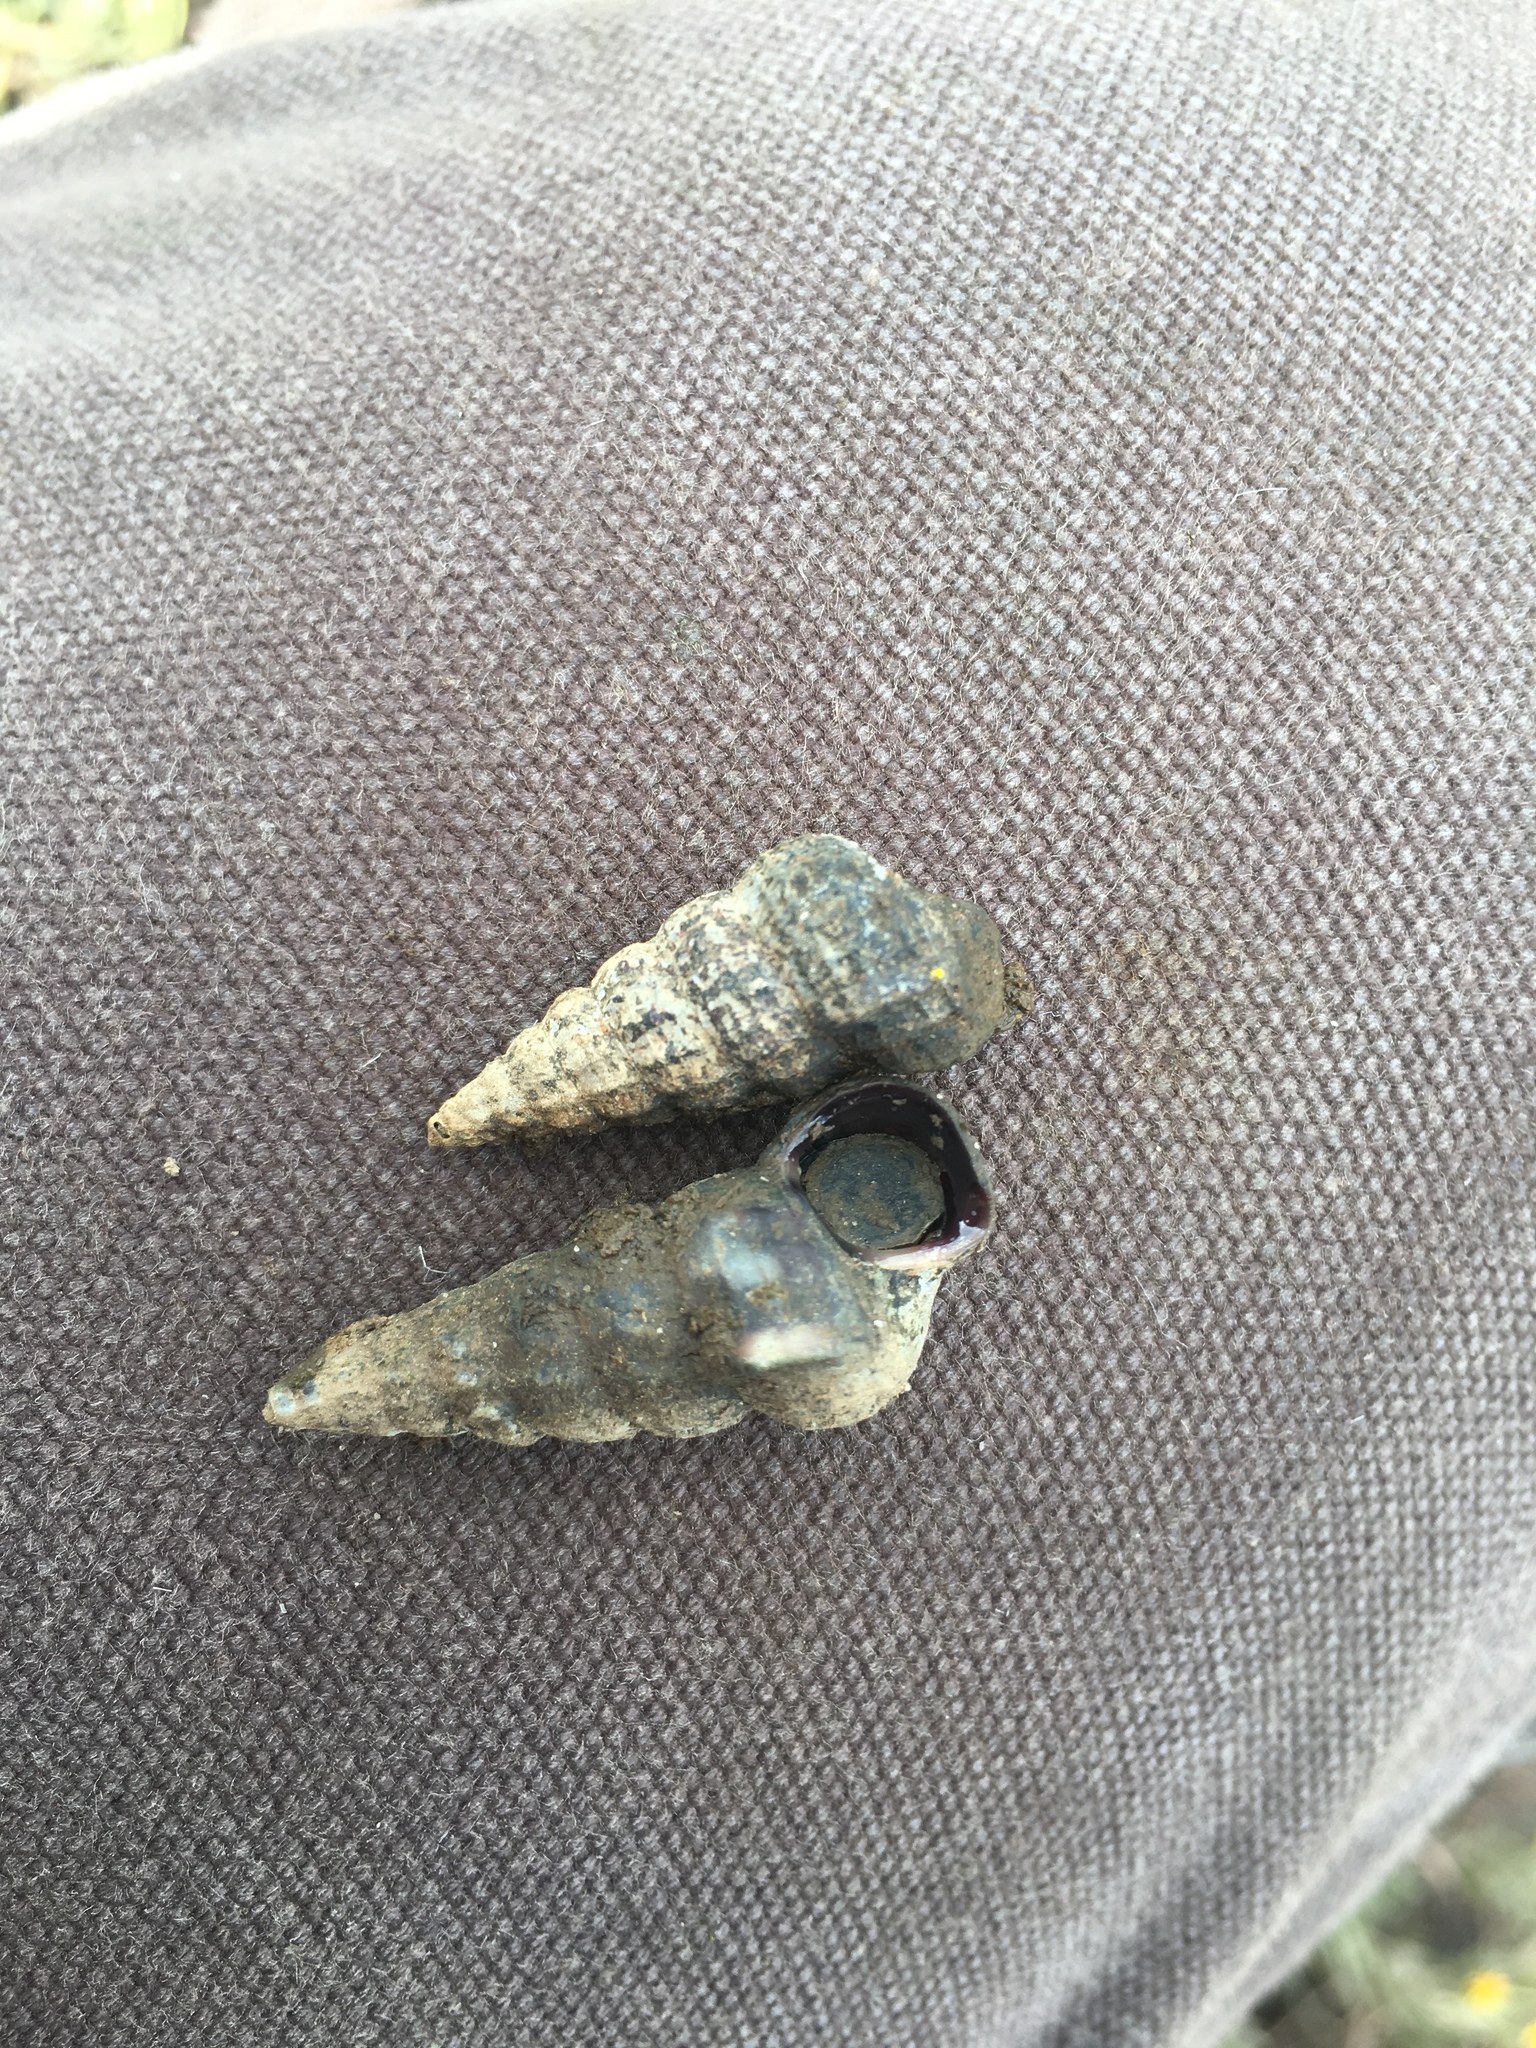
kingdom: Animalia
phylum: Mollusca
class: Gastropoda
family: Potamididae
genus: Cerithideopsis
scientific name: Cerithideopsis californica
